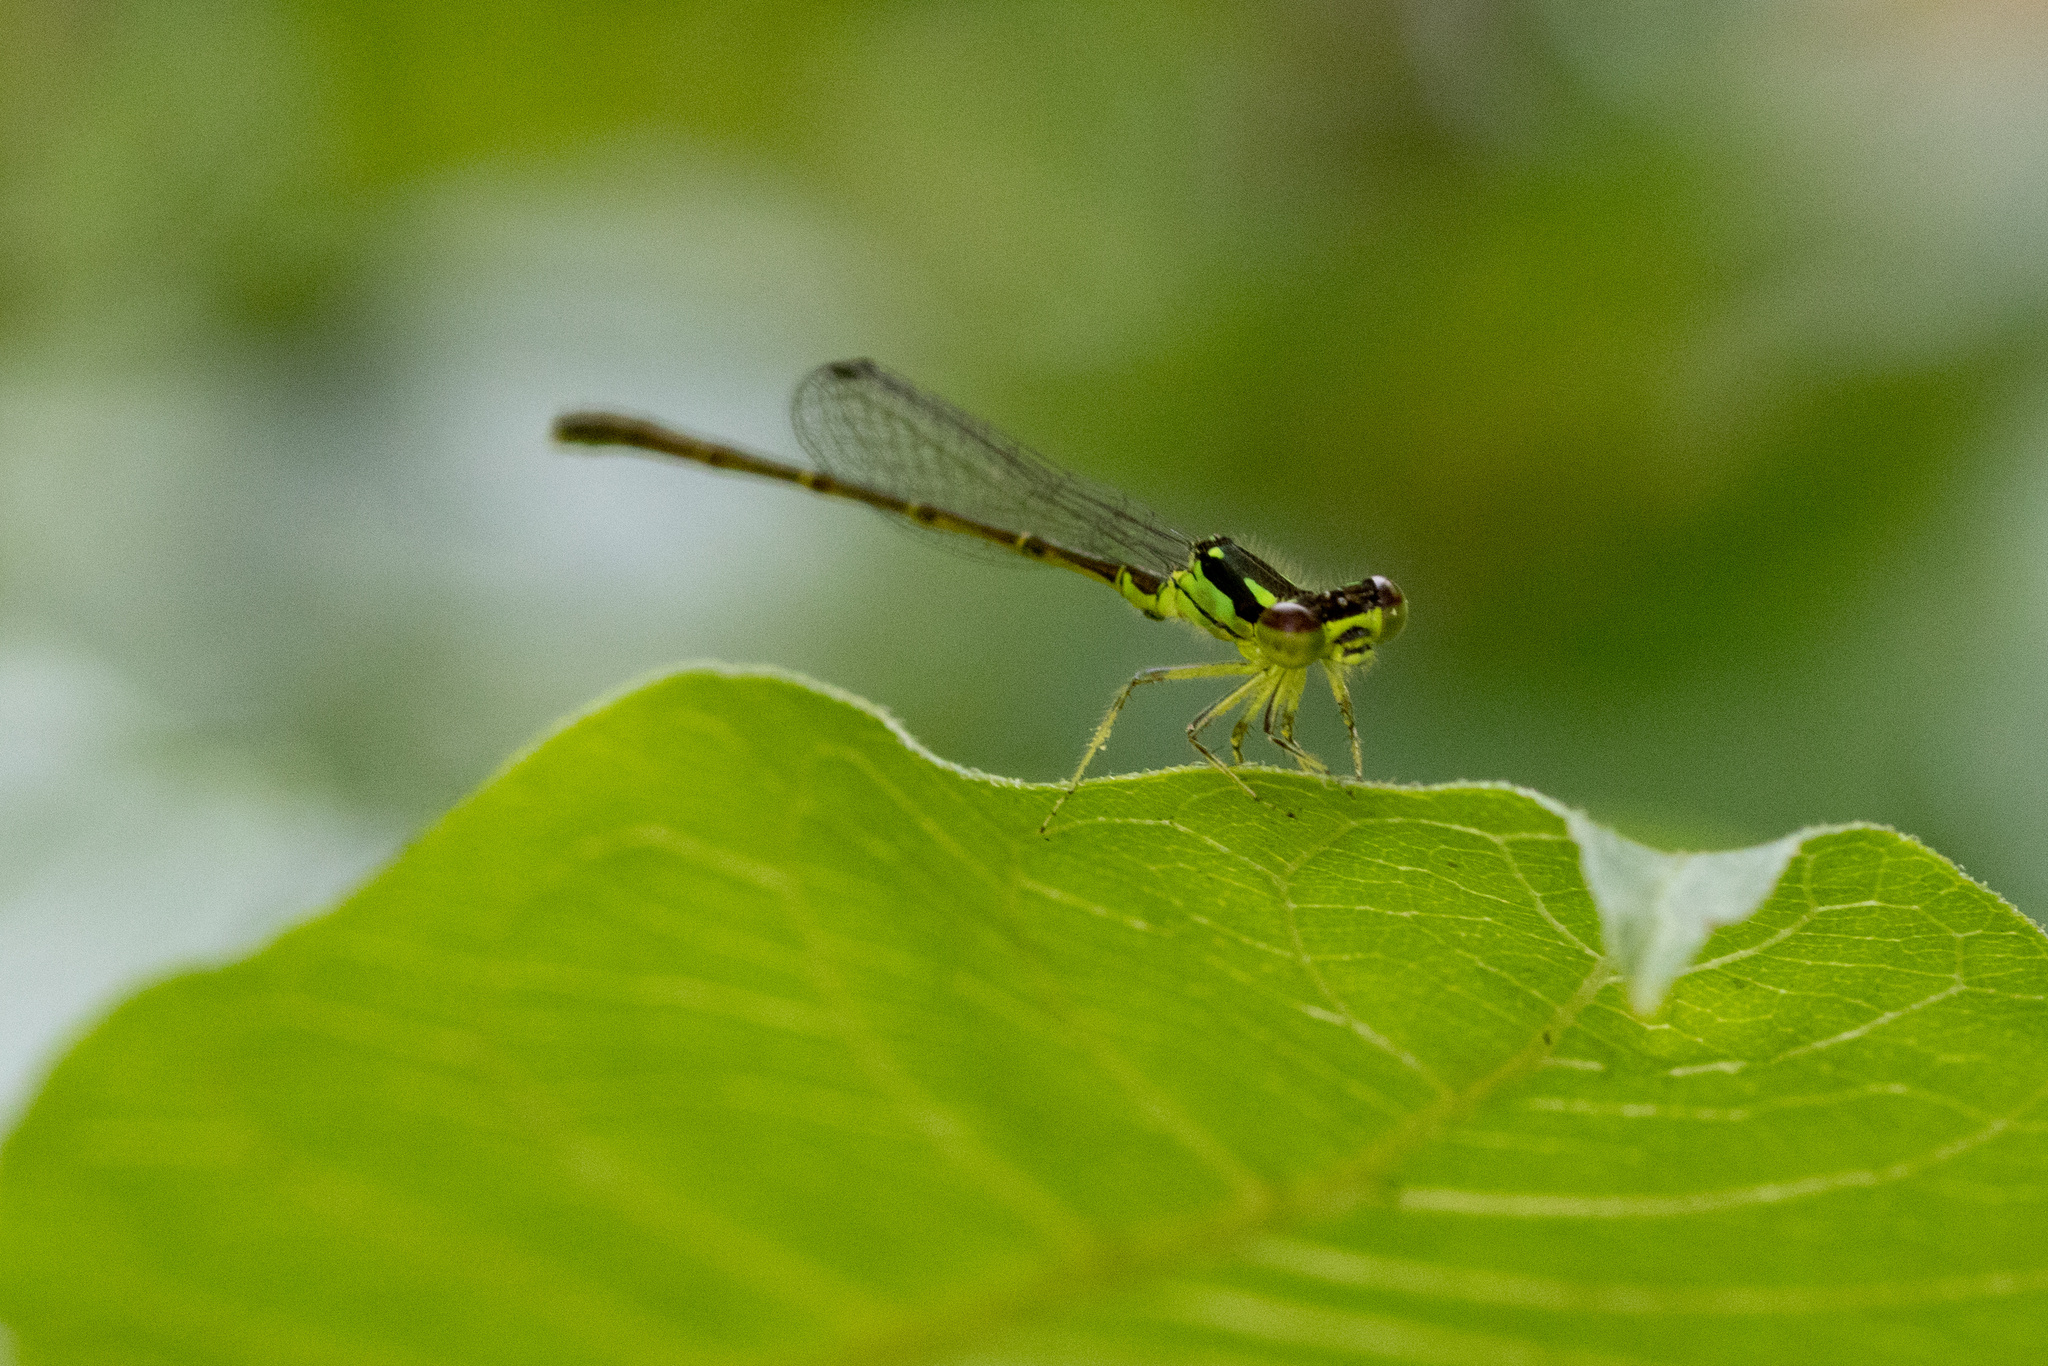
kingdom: Animalia
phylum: Arthropoda
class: Insecta
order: Odonata
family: Coenagrionidae
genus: Ischnura
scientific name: Ischnura posita
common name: Fragile forktail
